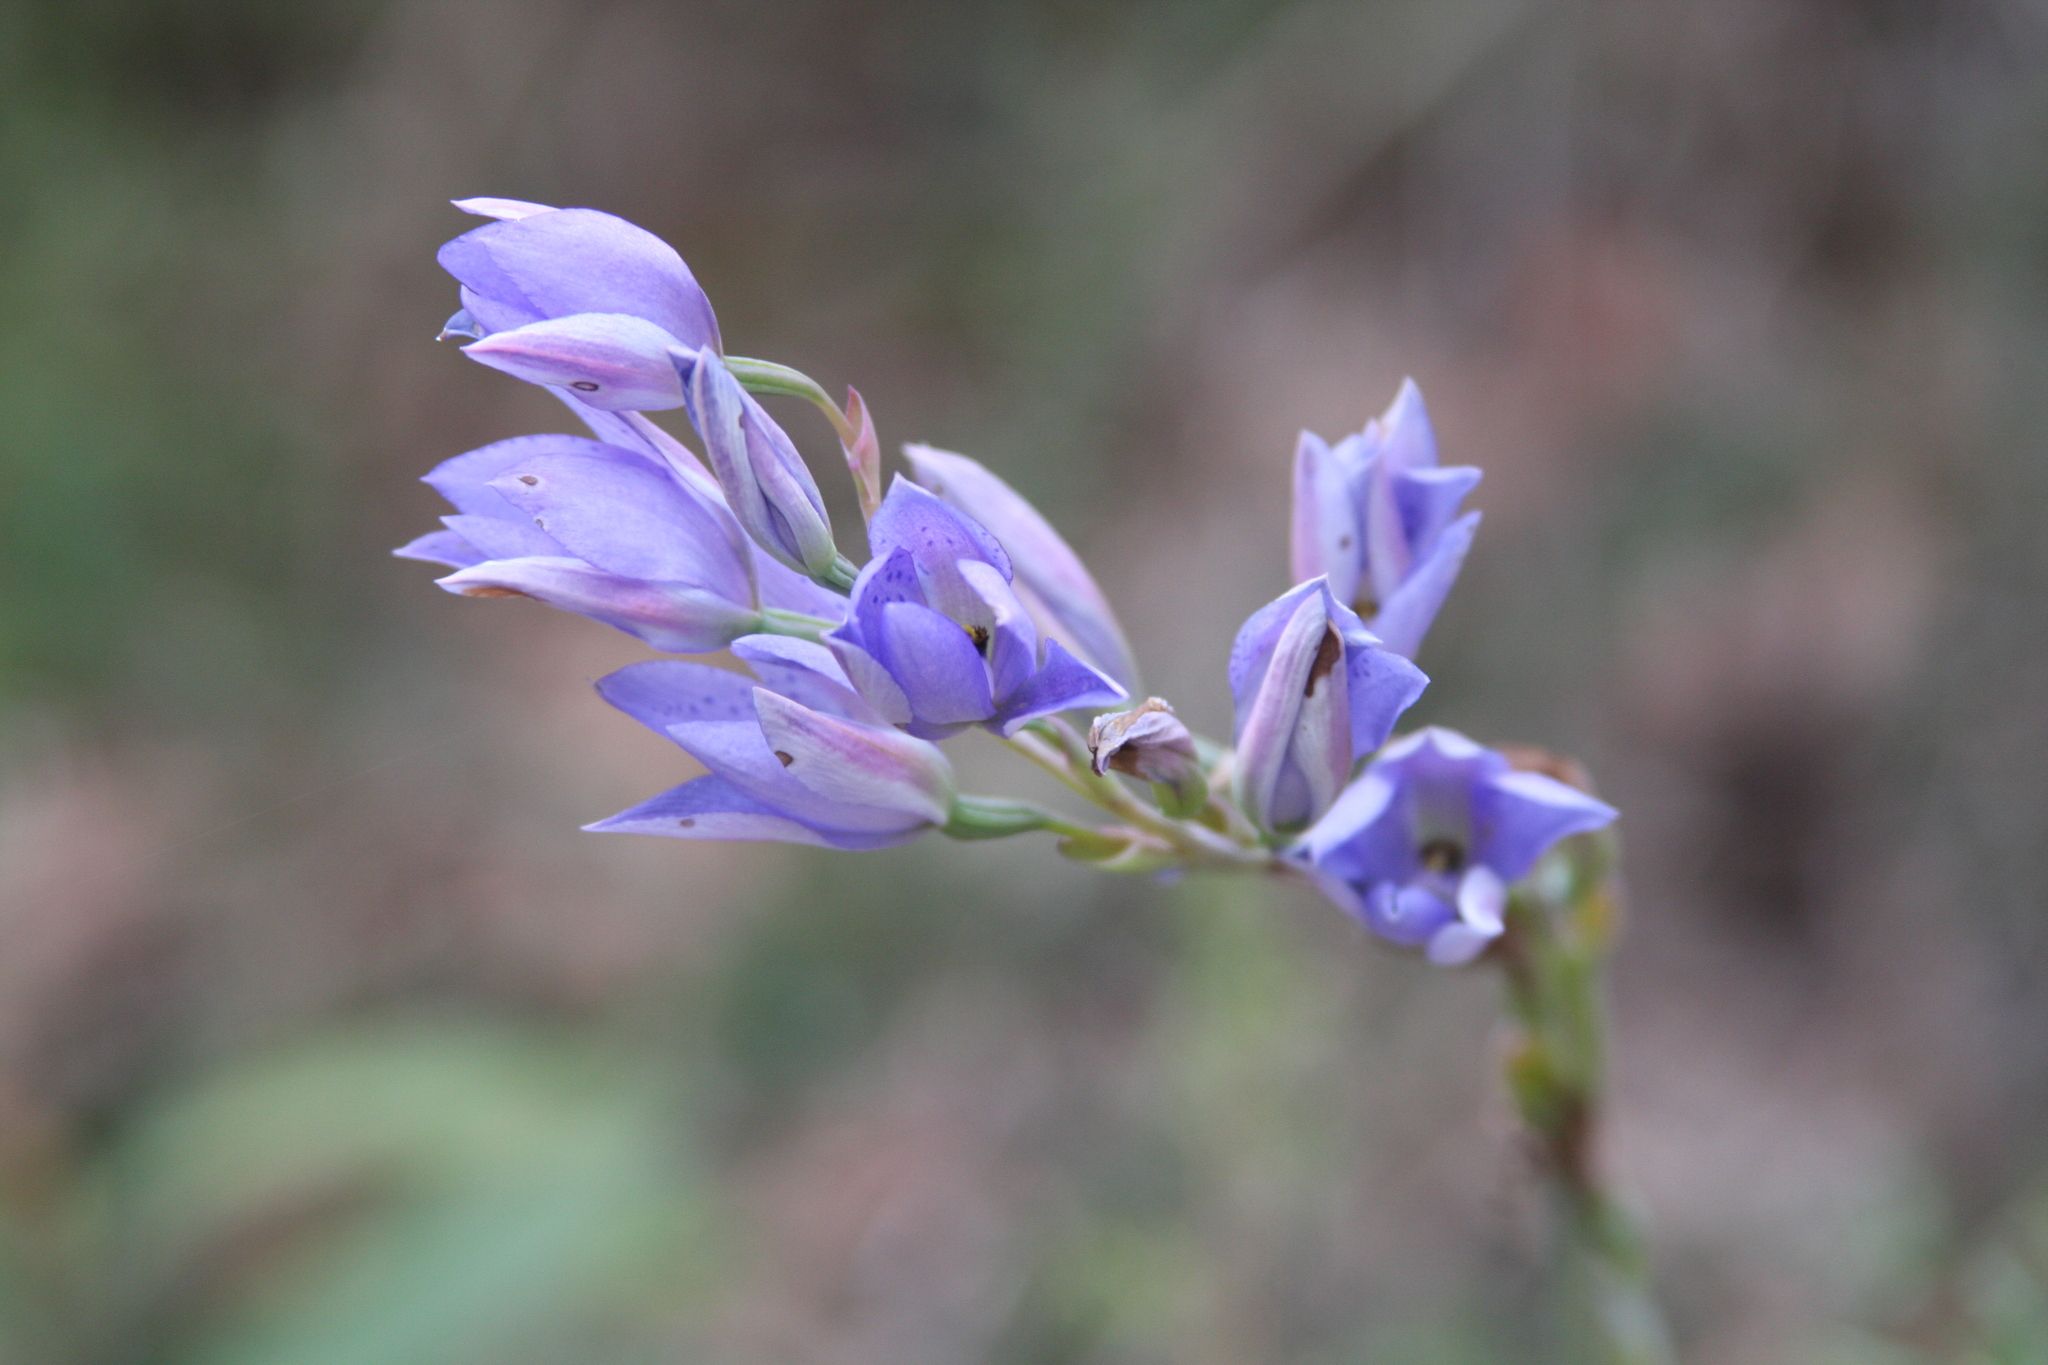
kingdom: Plantae
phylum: Tracheophyta
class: Liliopsida
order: Asparagales
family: Orchidaceae
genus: Thelymitra
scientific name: Thelymitra ixioides
